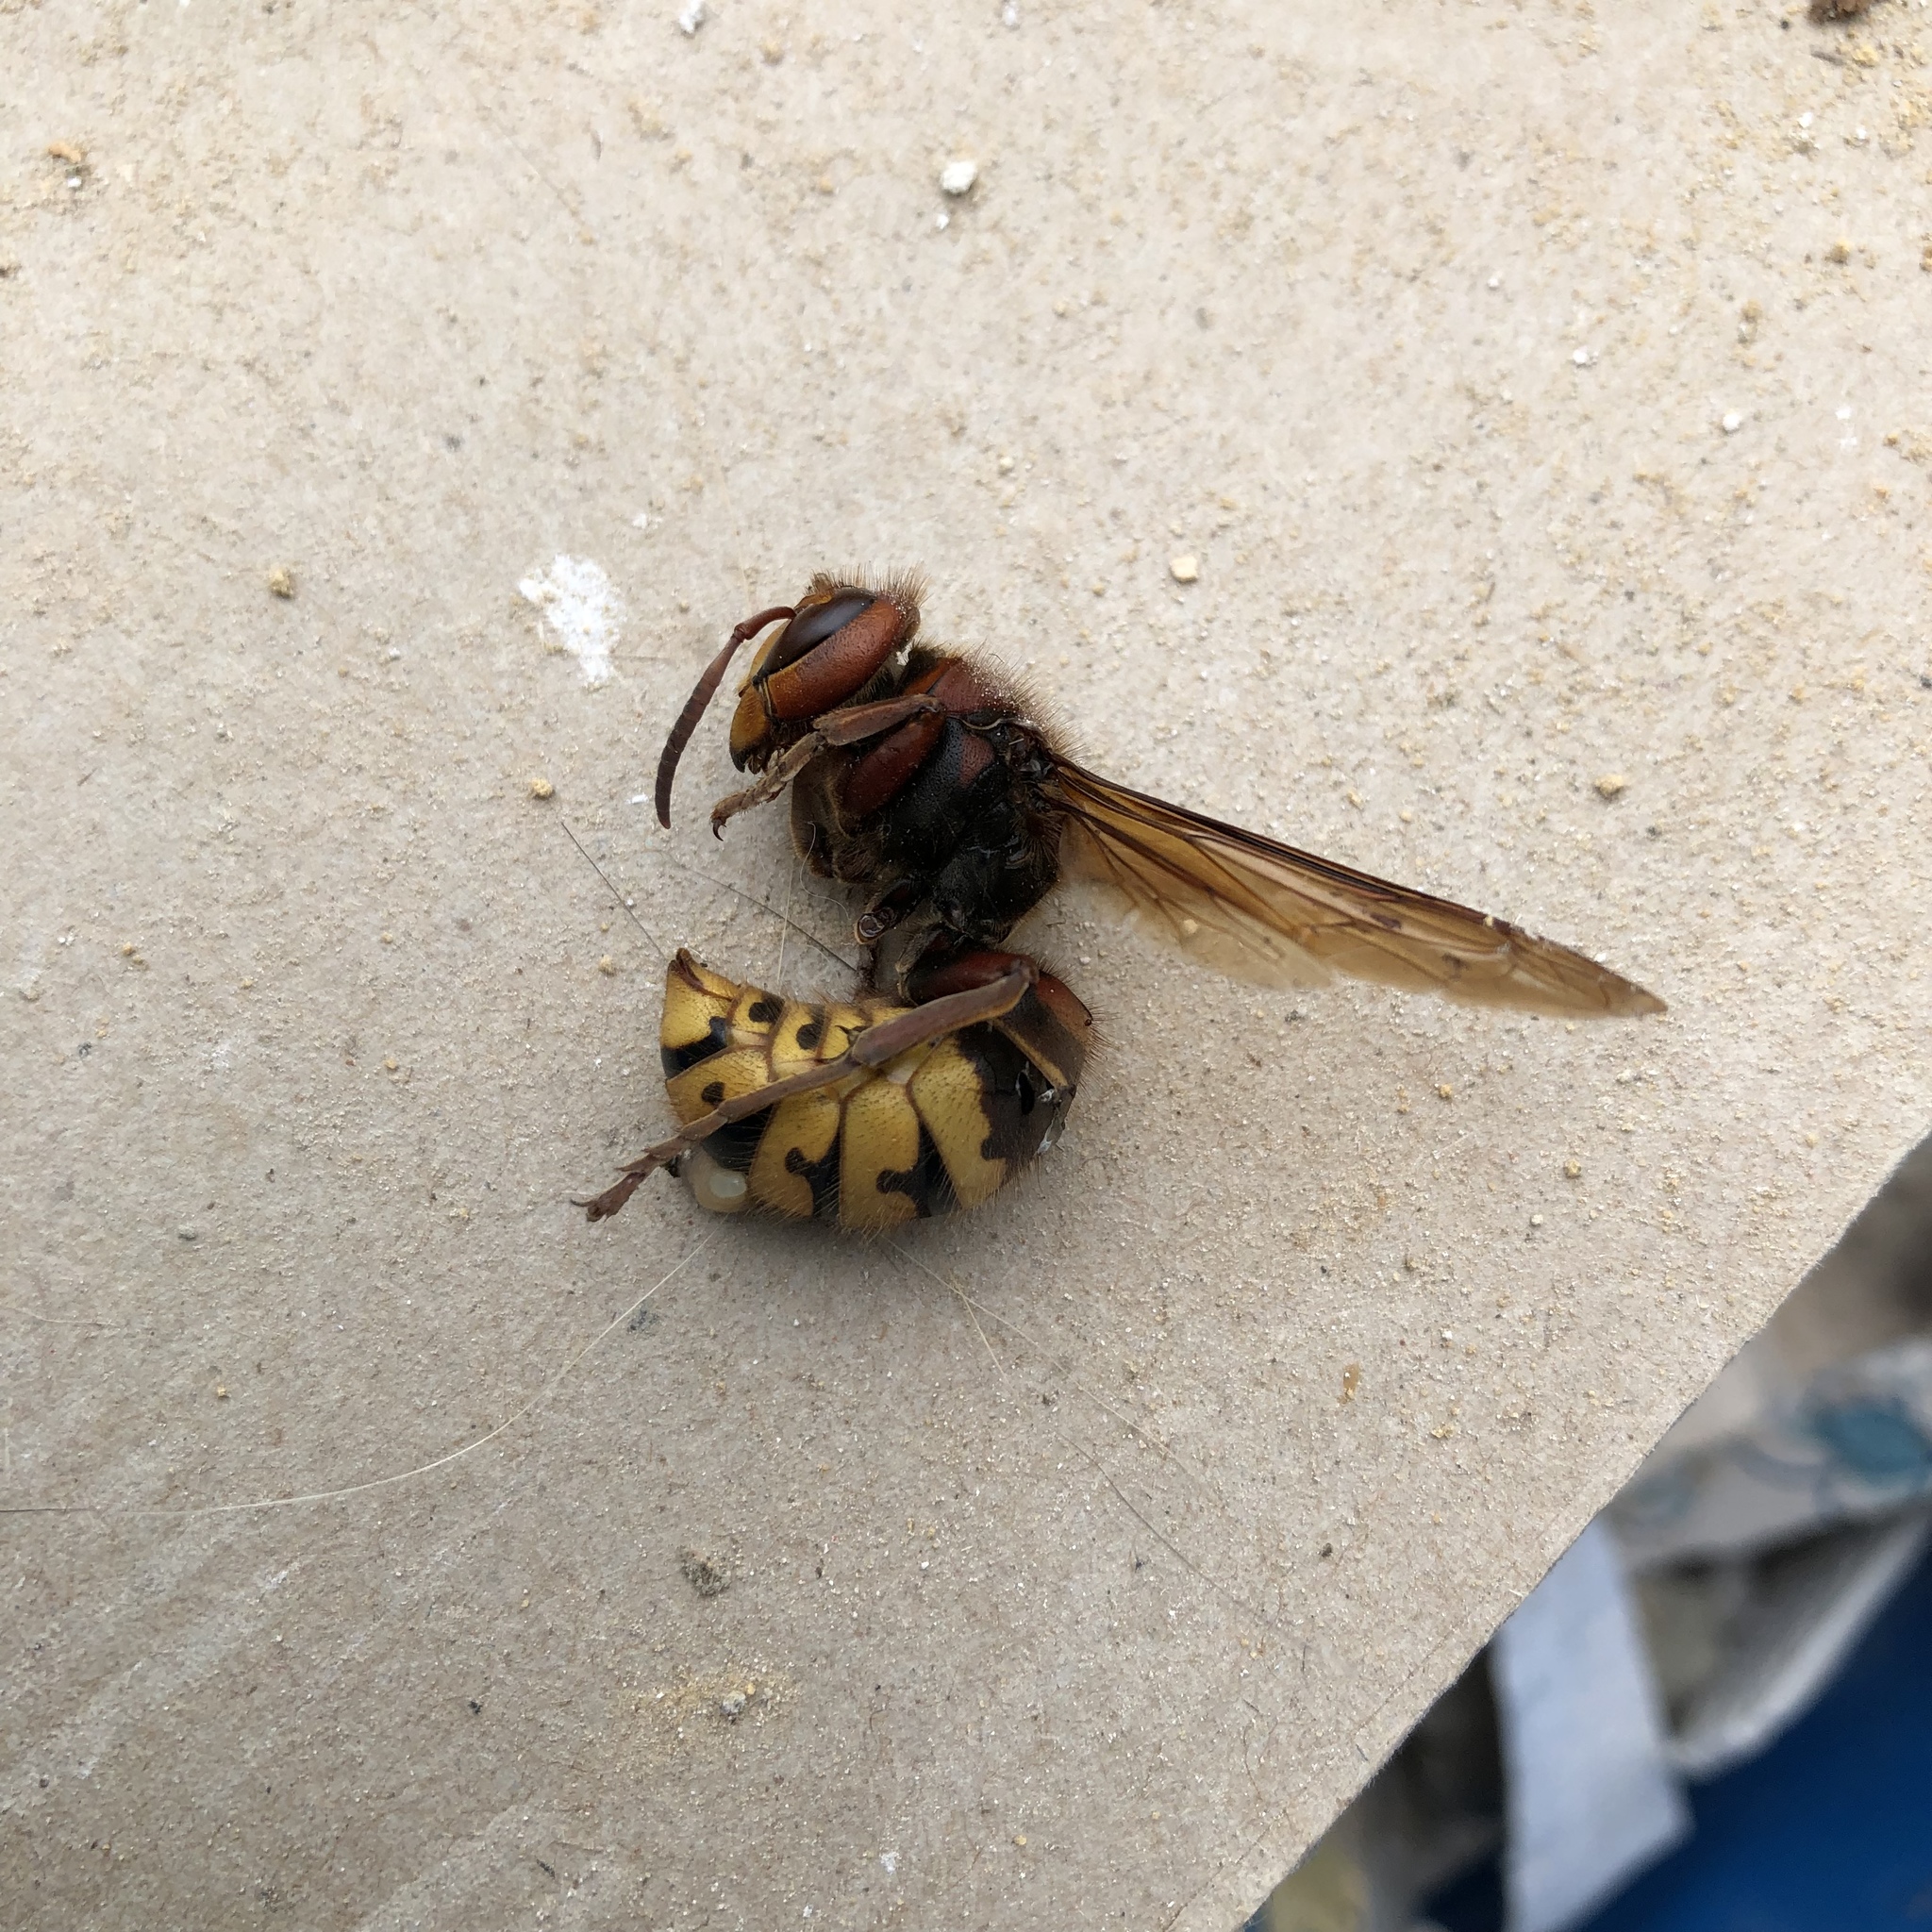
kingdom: Animalia
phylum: Arthropoda
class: Insecta
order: Hymenoptera
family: Vespidae
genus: Vespa
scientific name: Vespa crabro
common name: Hornet
